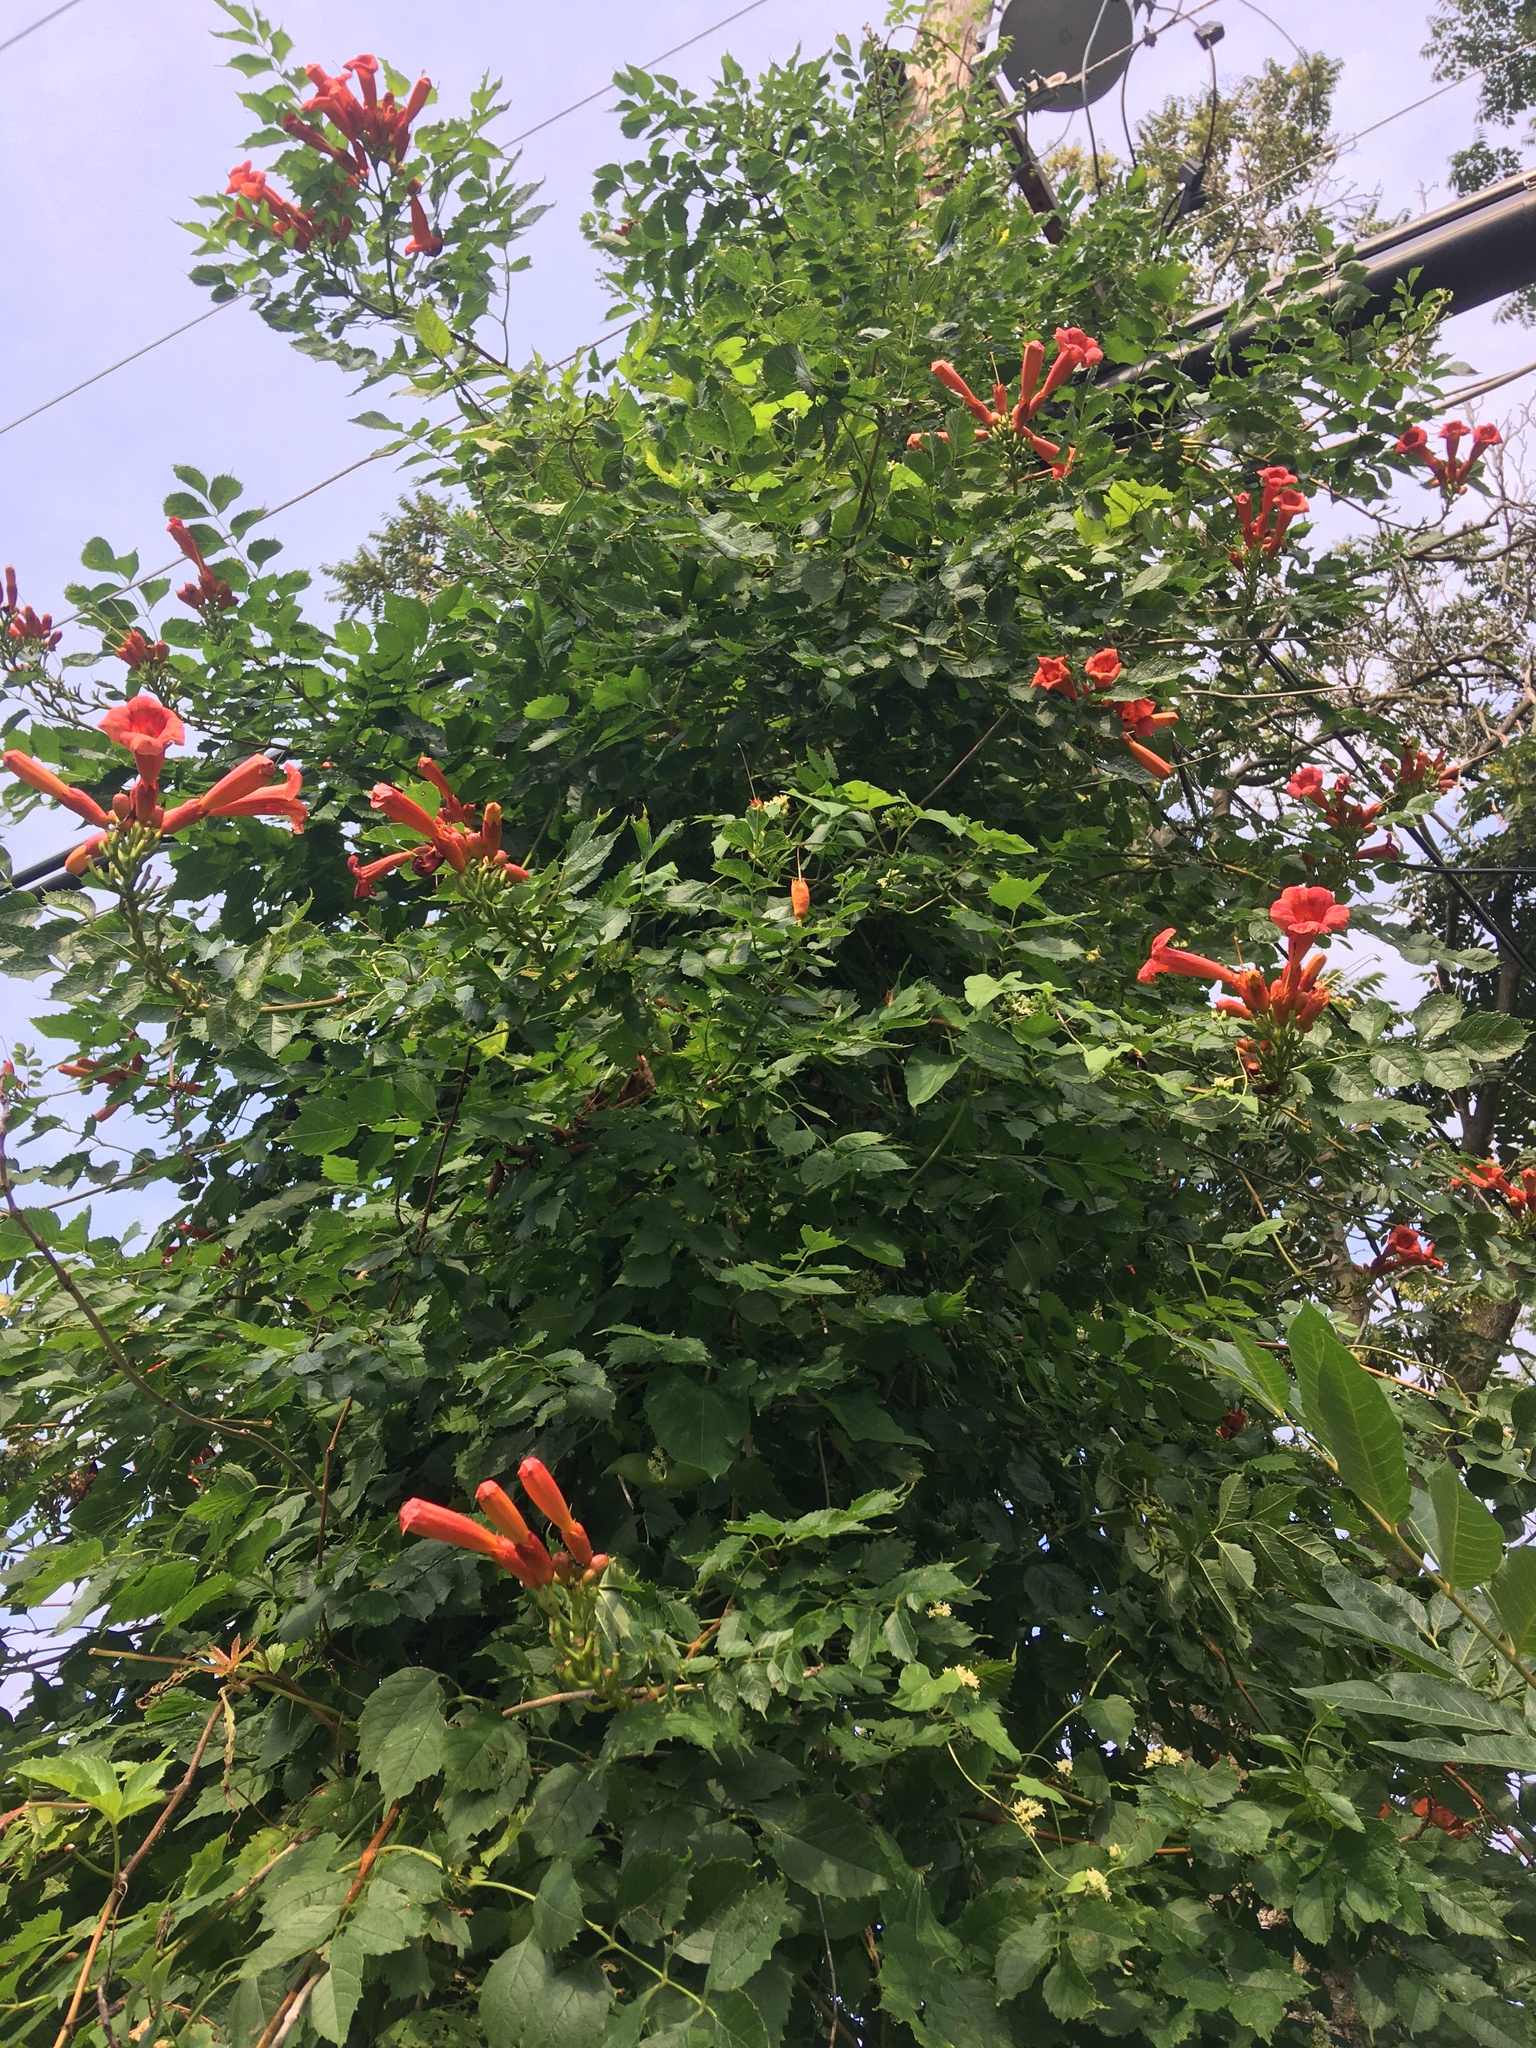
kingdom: Plantae
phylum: Tracheophyta
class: Magnoliopsida
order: Lamiales
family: Bignoniaceae
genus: Campsis
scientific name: Campsis radicans
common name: Trumpet-creeper
